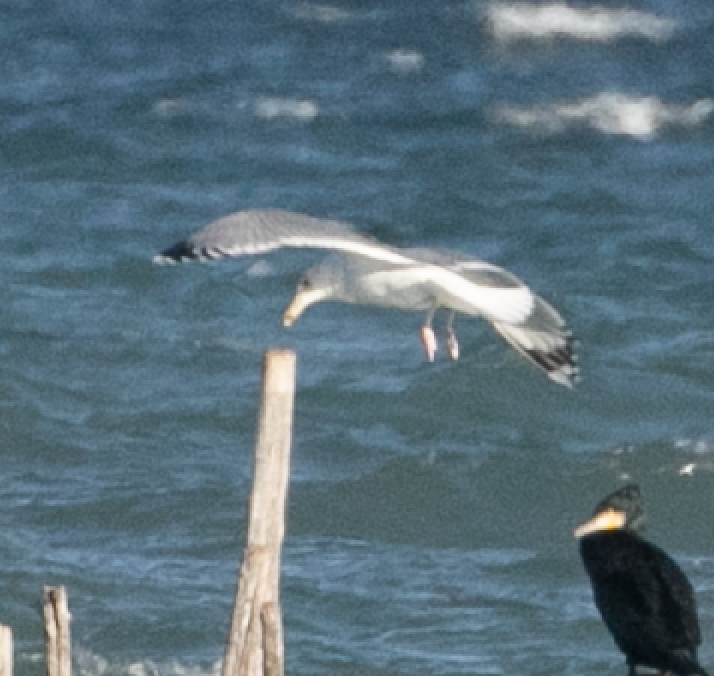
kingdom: Animalia
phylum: Chordata
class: Aves
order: Charadriiformes
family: Laridae
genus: Larus
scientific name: Larus cachinnans
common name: Caspian gull
